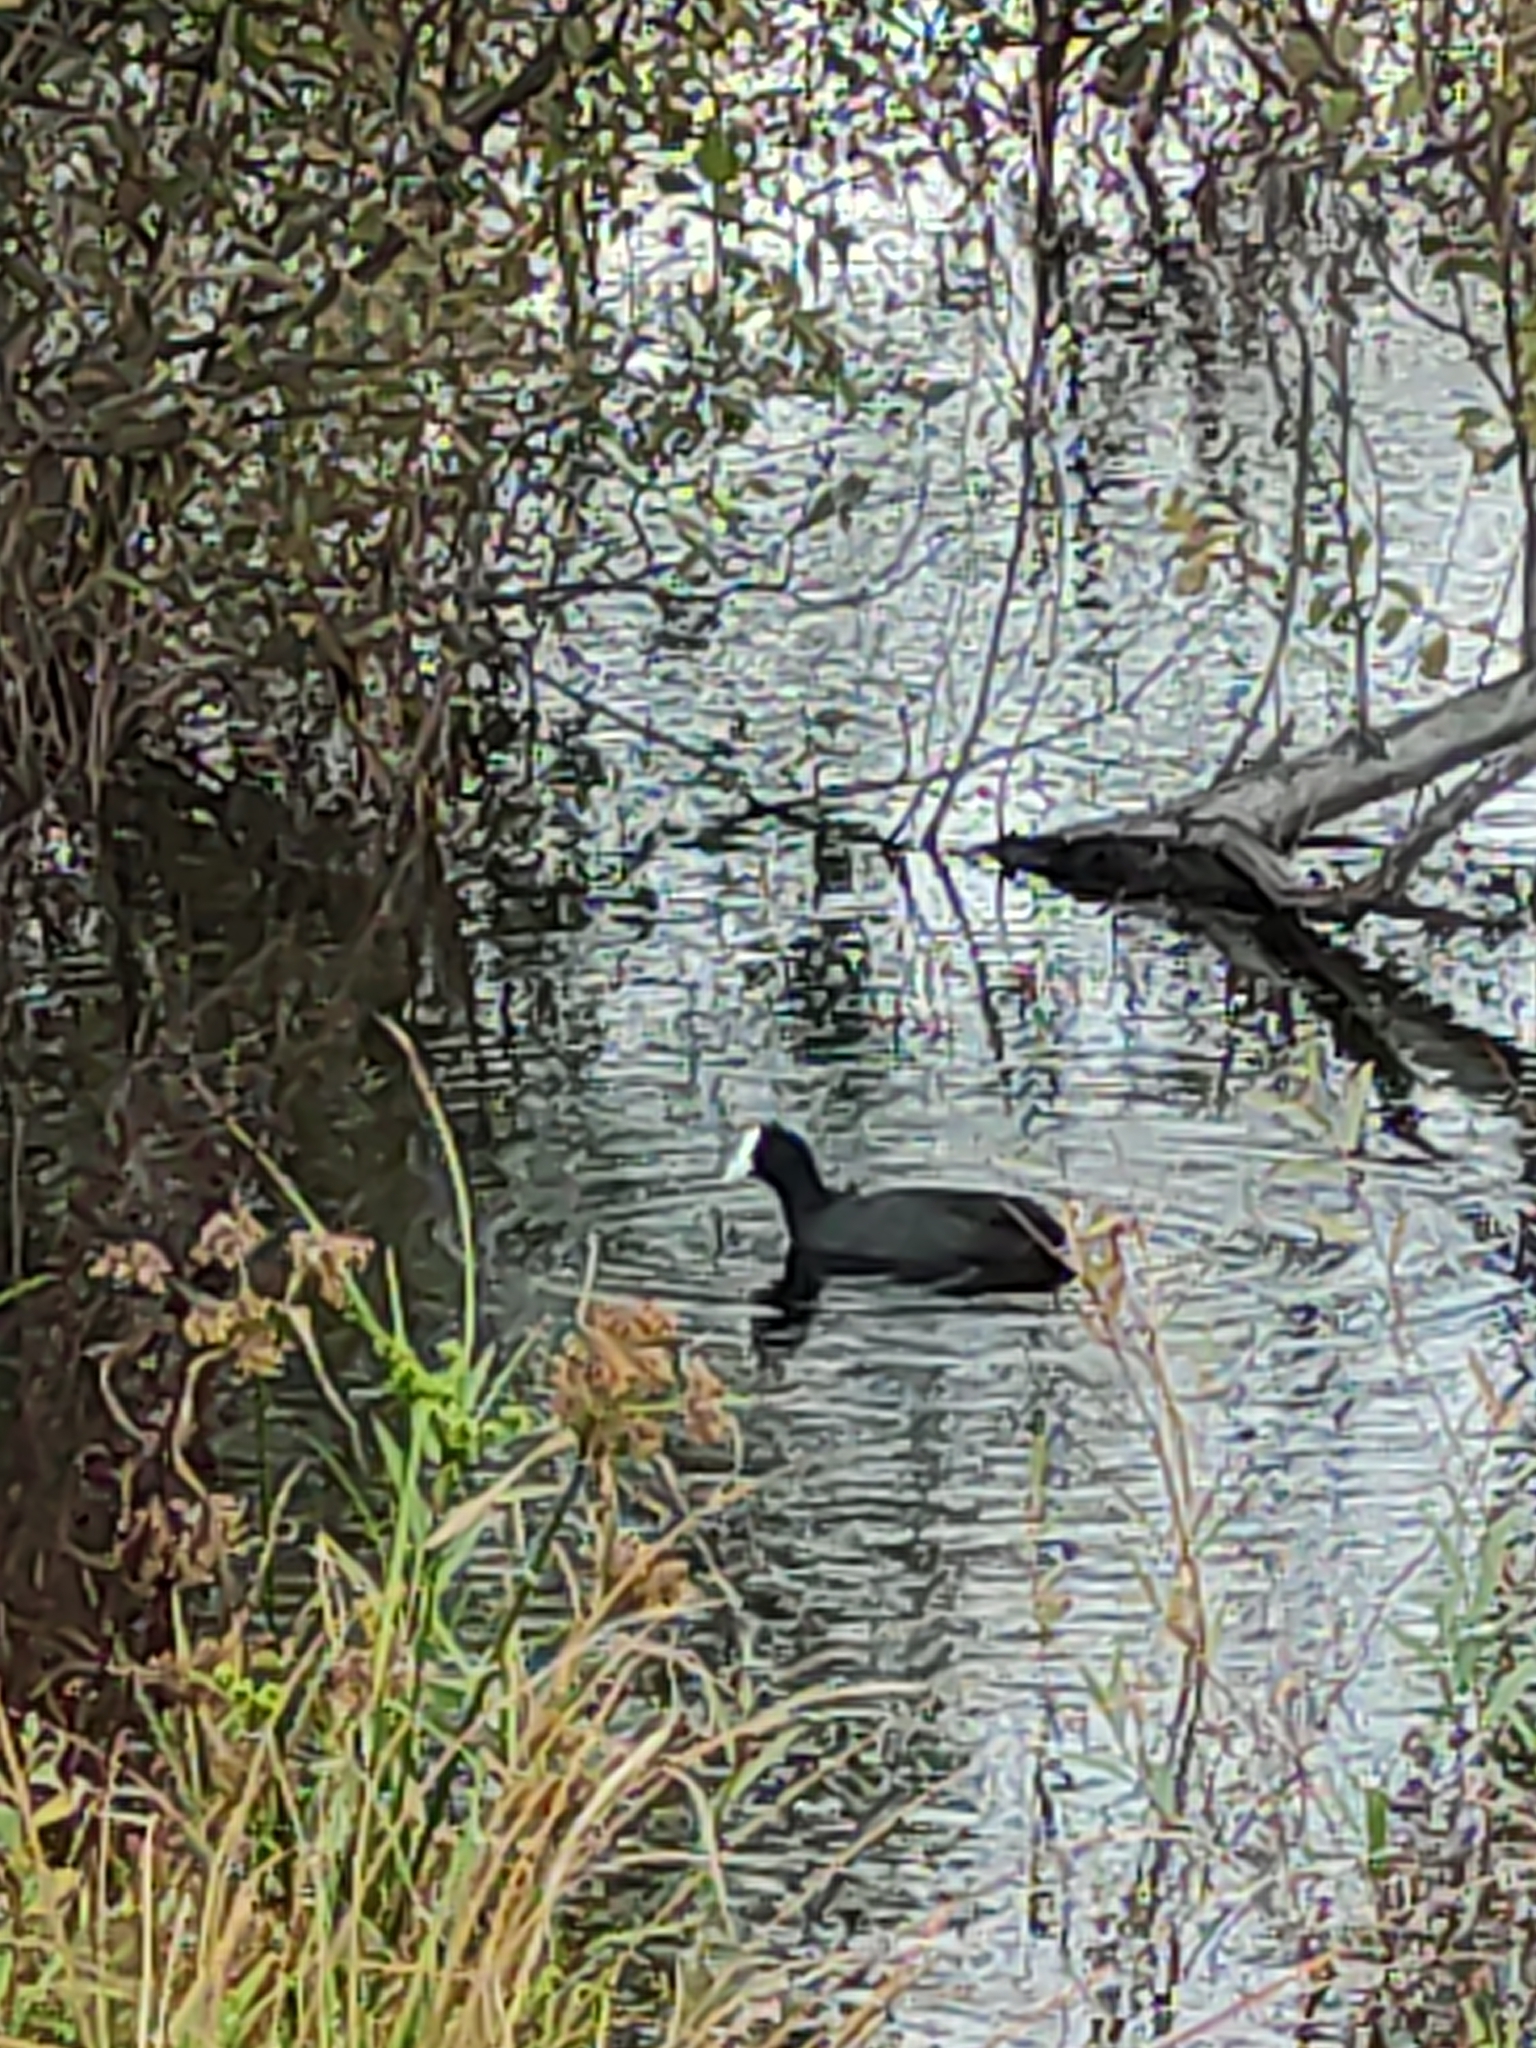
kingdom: Animalia
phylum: Chordata
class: Aves
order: Gruiformes
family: Rallidae
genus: Fulica
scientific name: Fulica atra
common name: Eurasian coot
